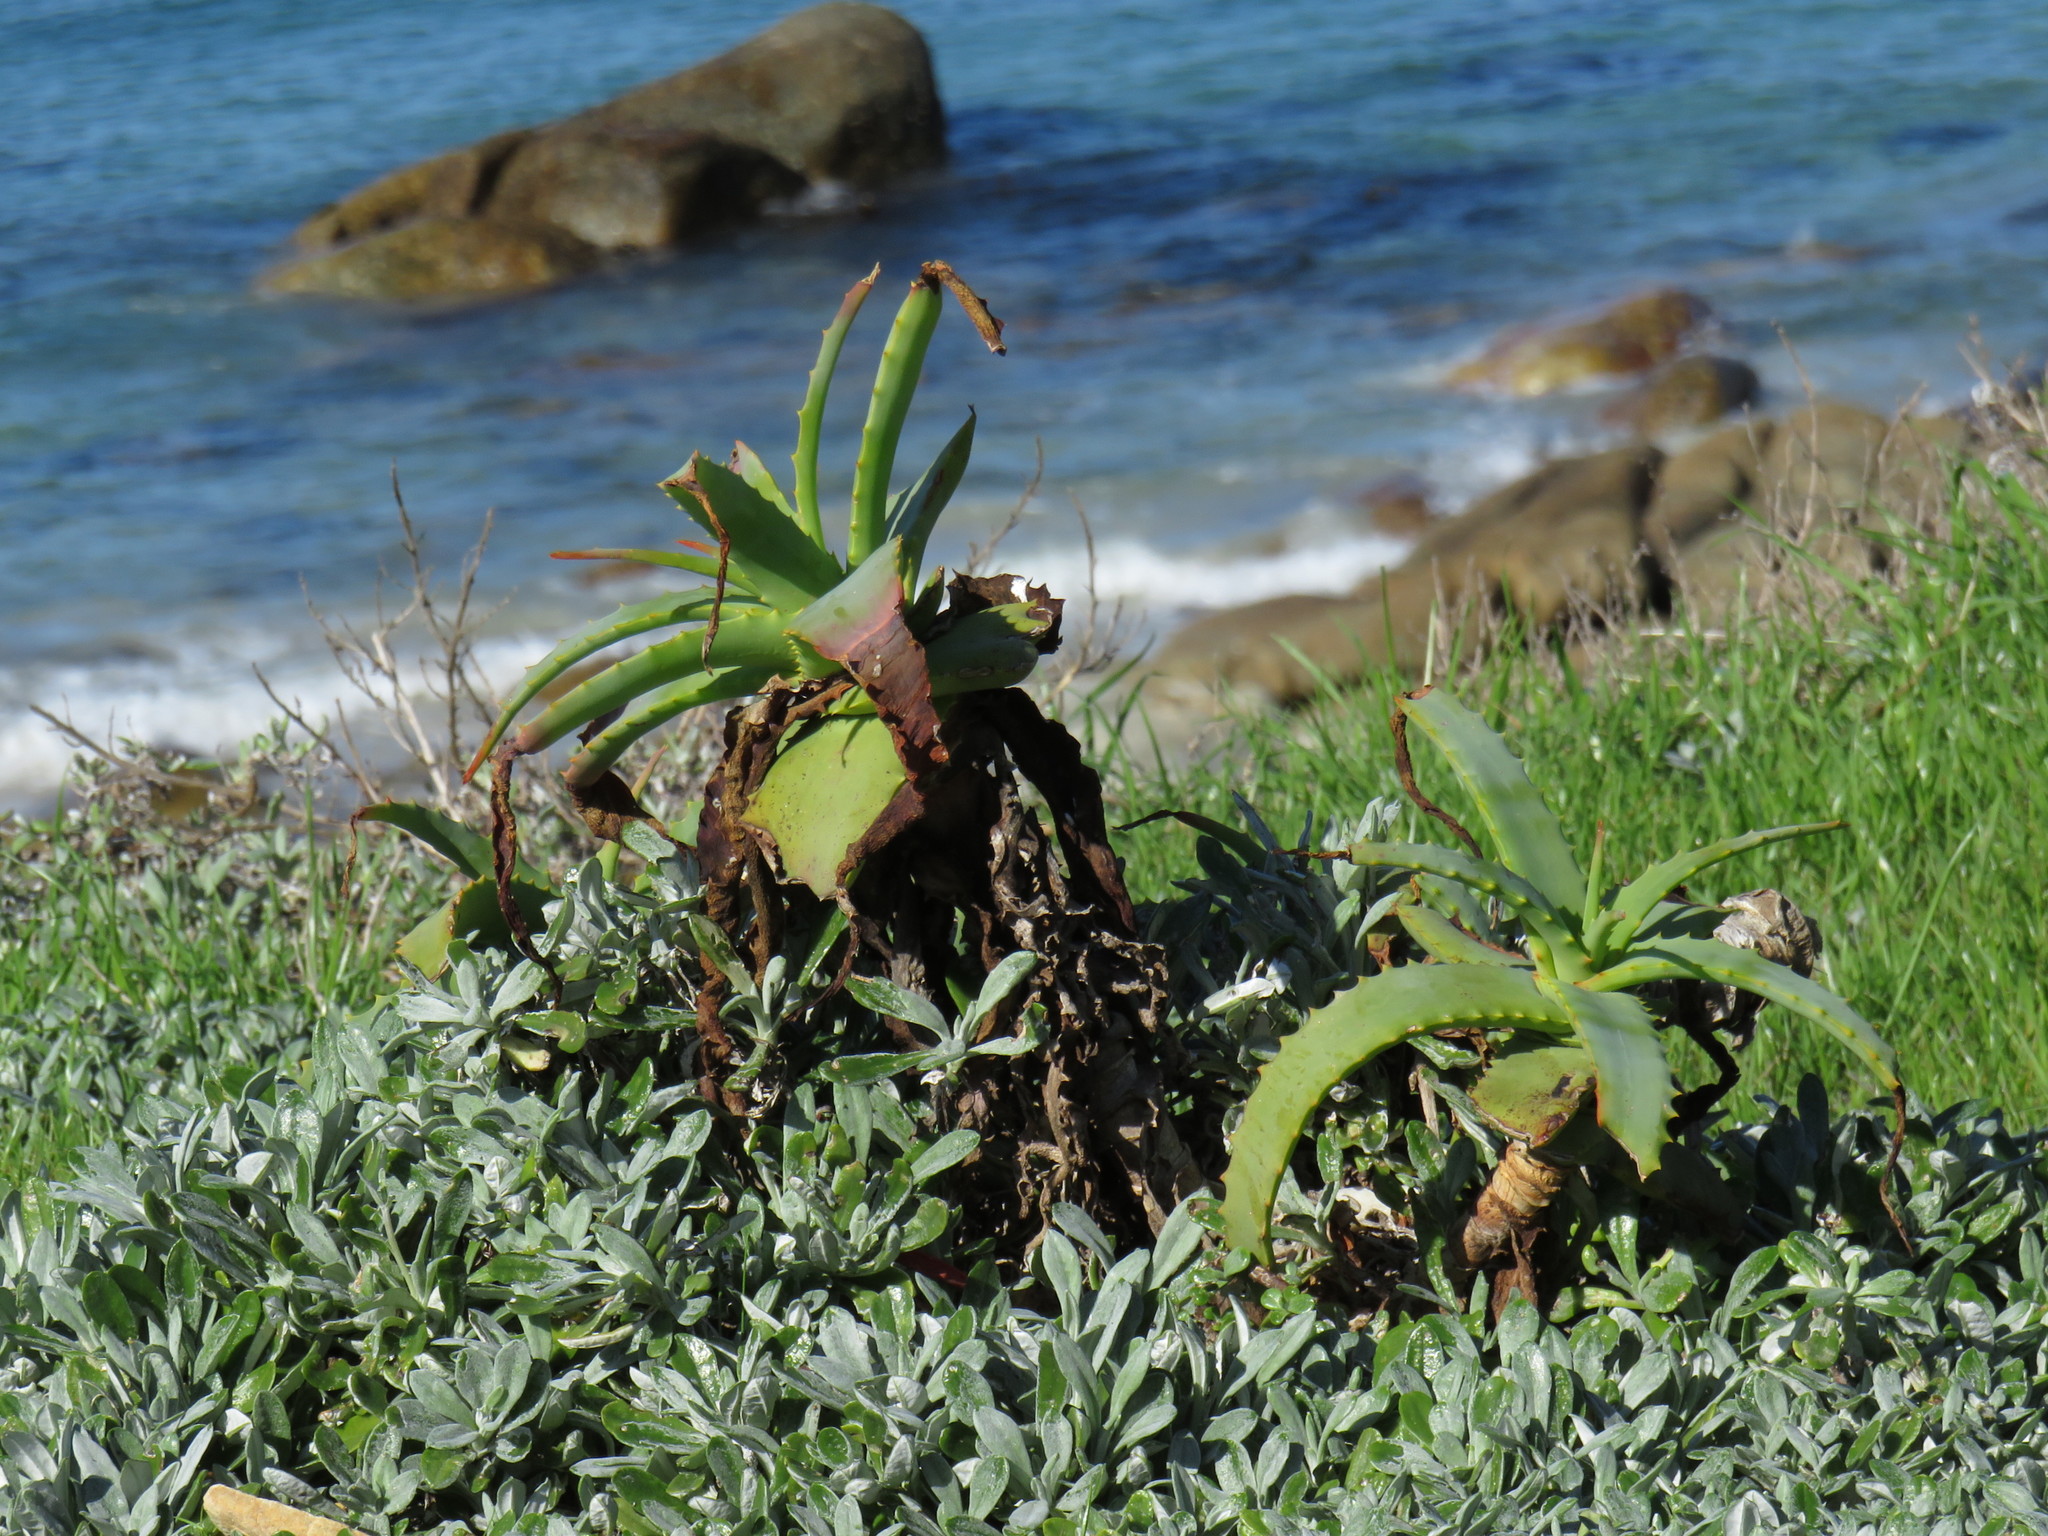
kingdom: Plantae
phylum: Tracheophyta
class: Liliopsida
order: Asparagales
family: Asphodelaceae
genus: Aloe
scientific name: Aloe arborescens
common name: Candelabra aloe
